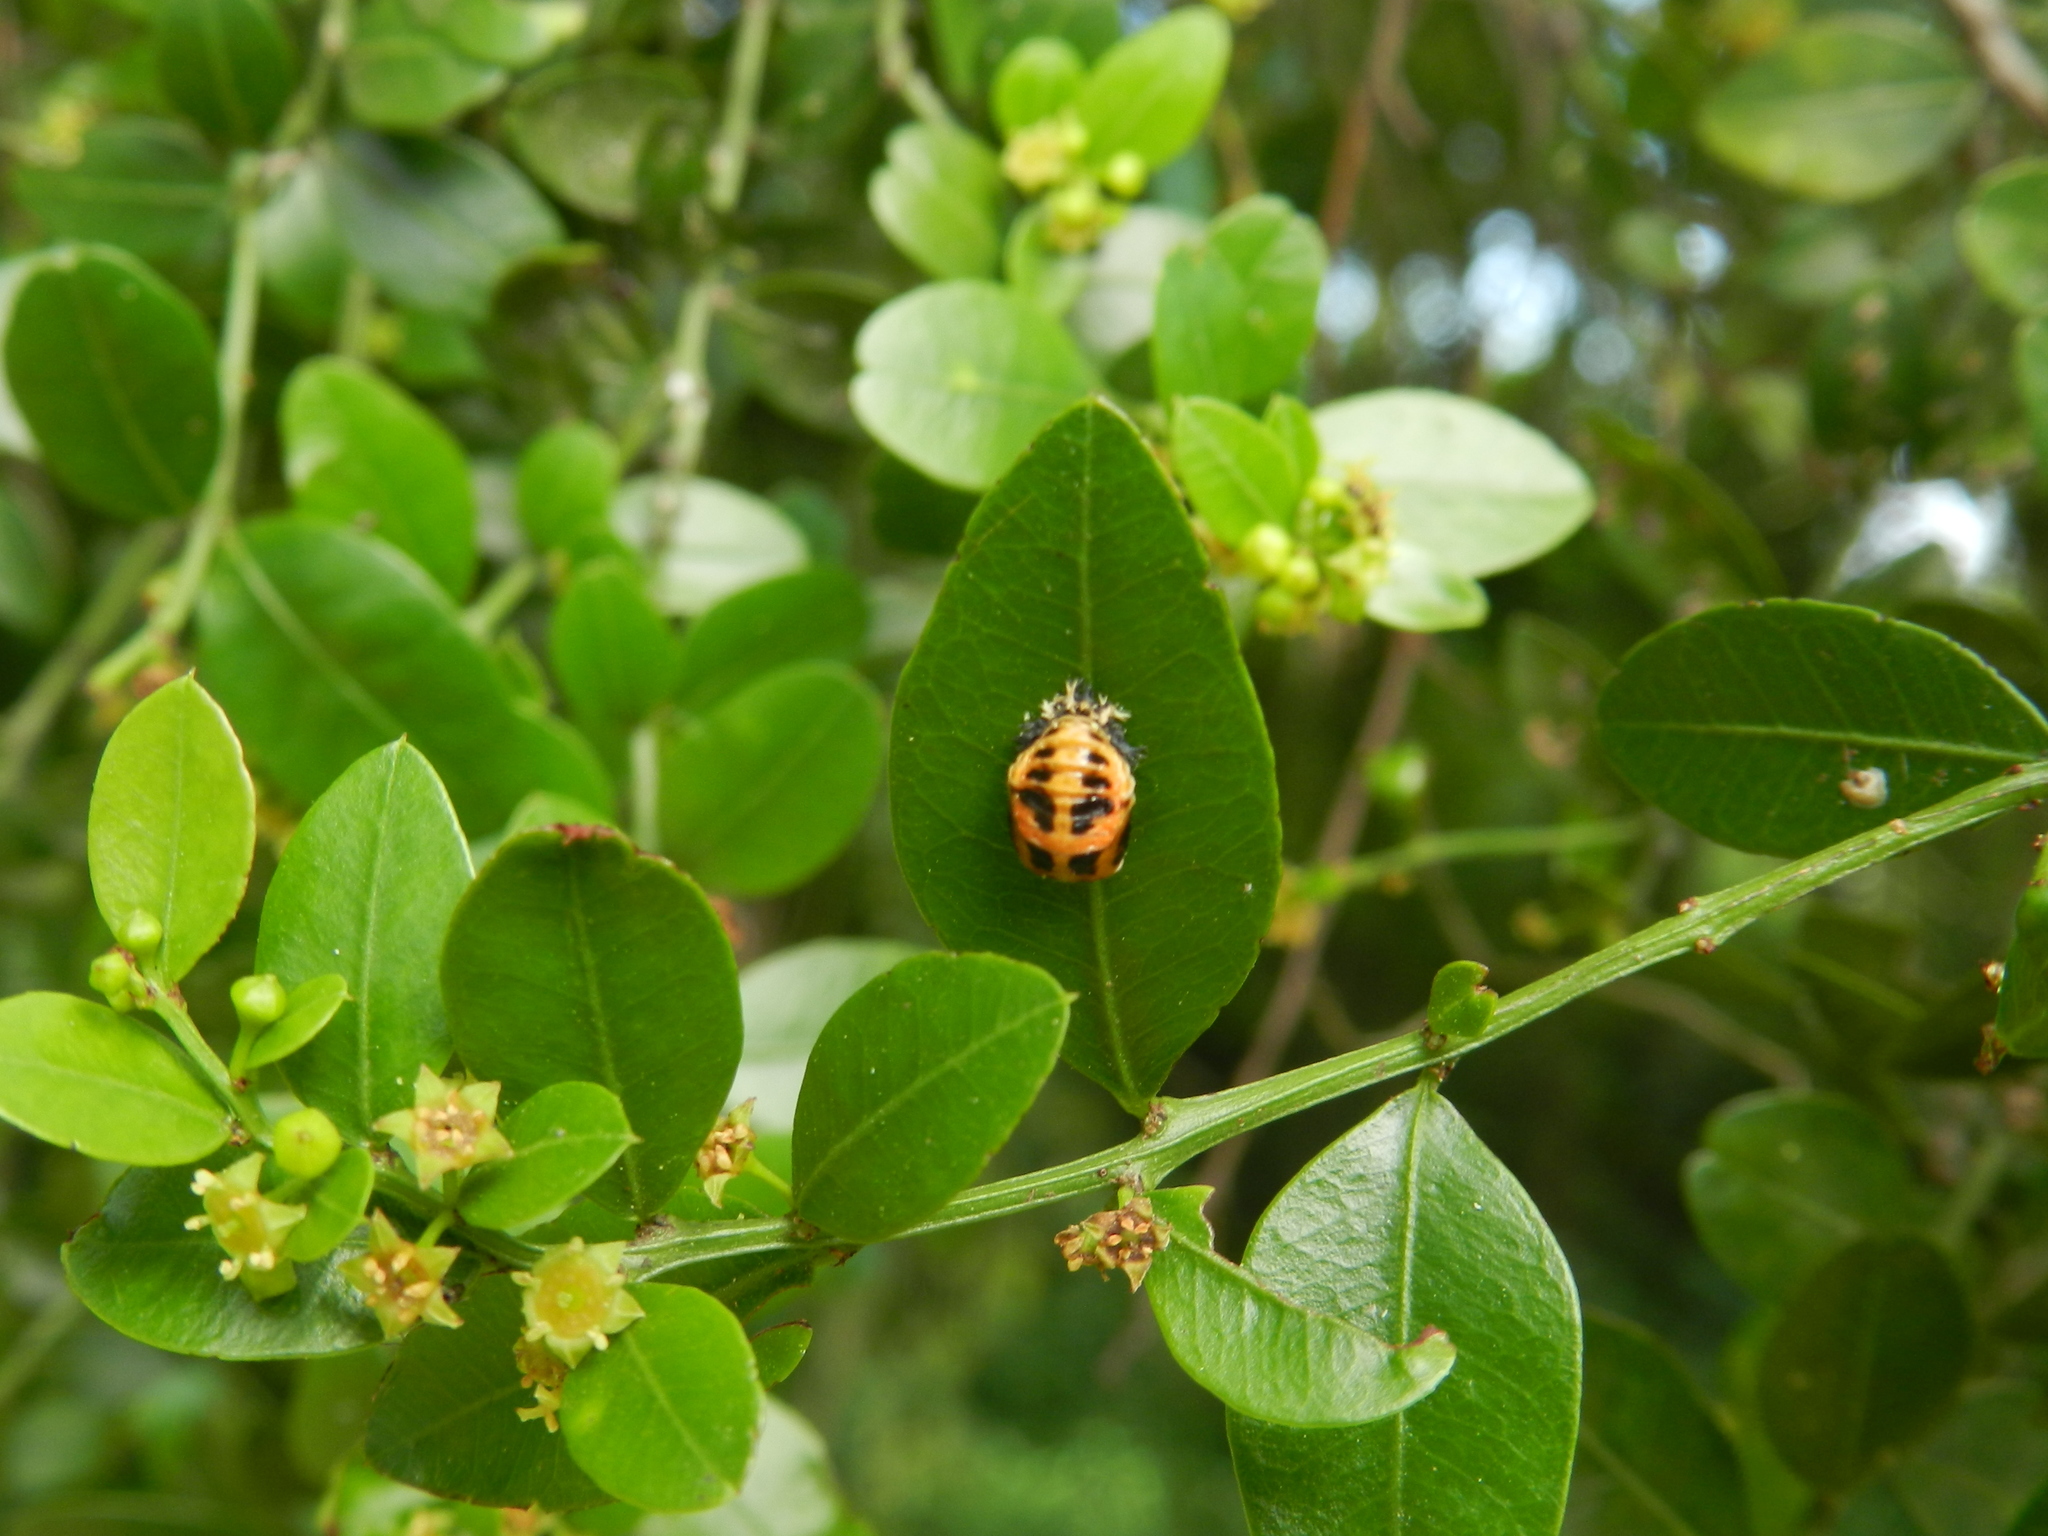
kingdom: Animalia
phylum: Arthropoda
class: Insecta
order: Coleoptera
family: Coccinellidae
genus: Harmonia
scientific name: Harmonia axyridis
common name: Harlequin ladybird
